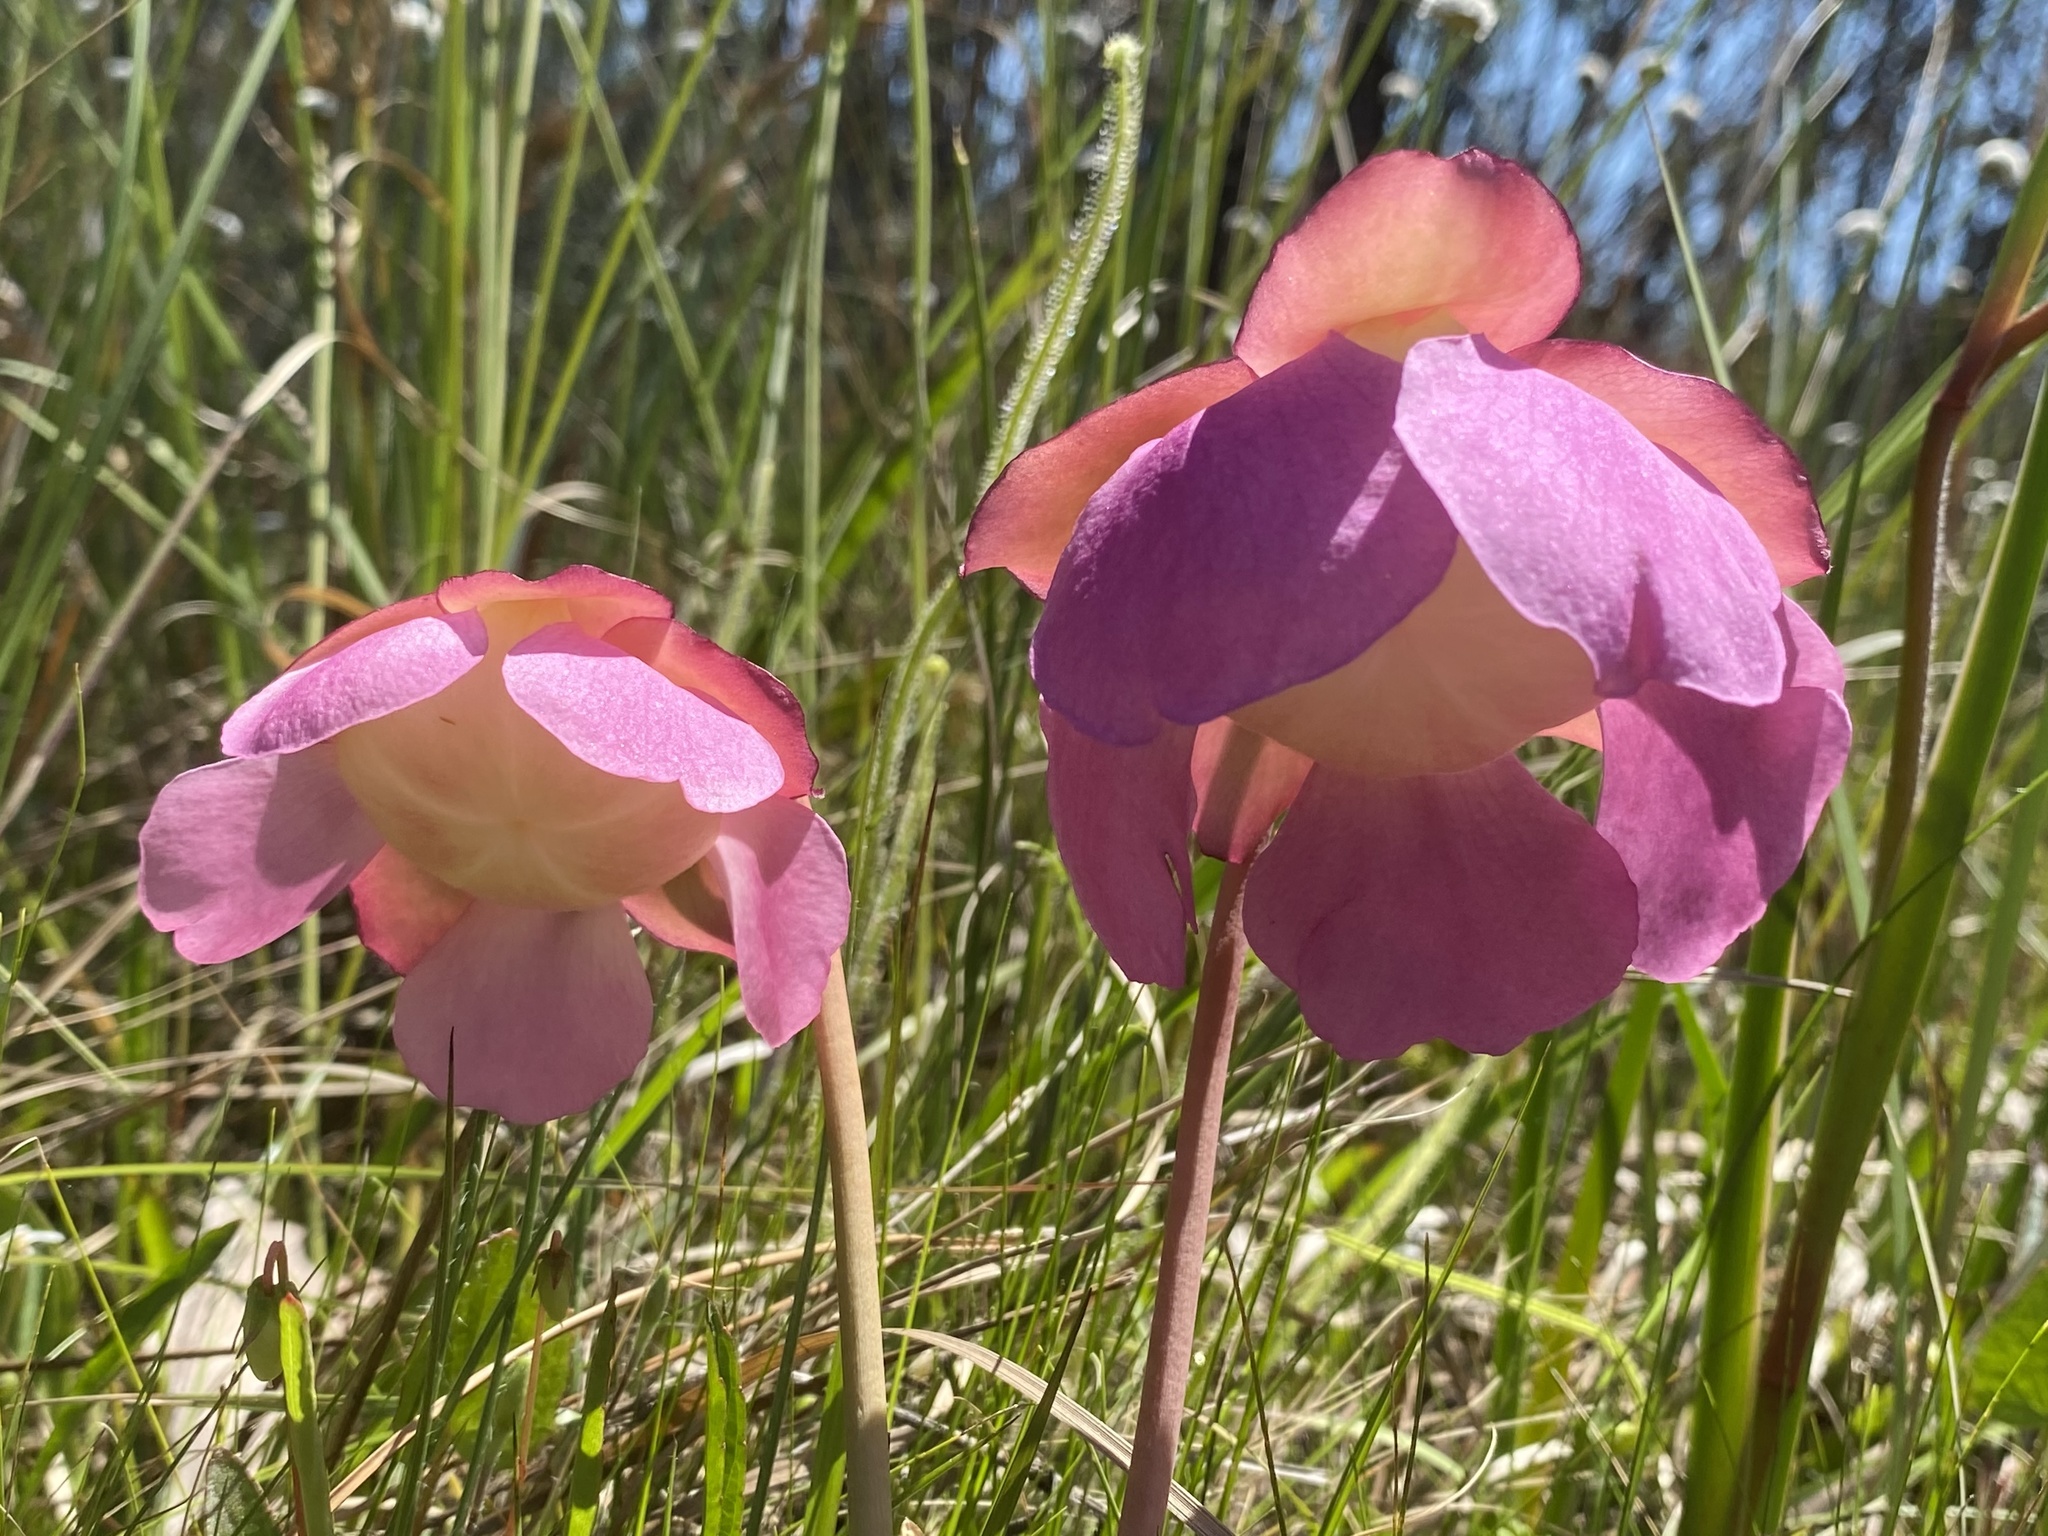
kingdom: Plantae
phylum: Tracheophyta
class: Magnoliopsida
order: Ericales
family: Sarraceniaceae
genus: Sarracenia
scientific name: Sarracenia rosea
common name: Pink pitcherplant
